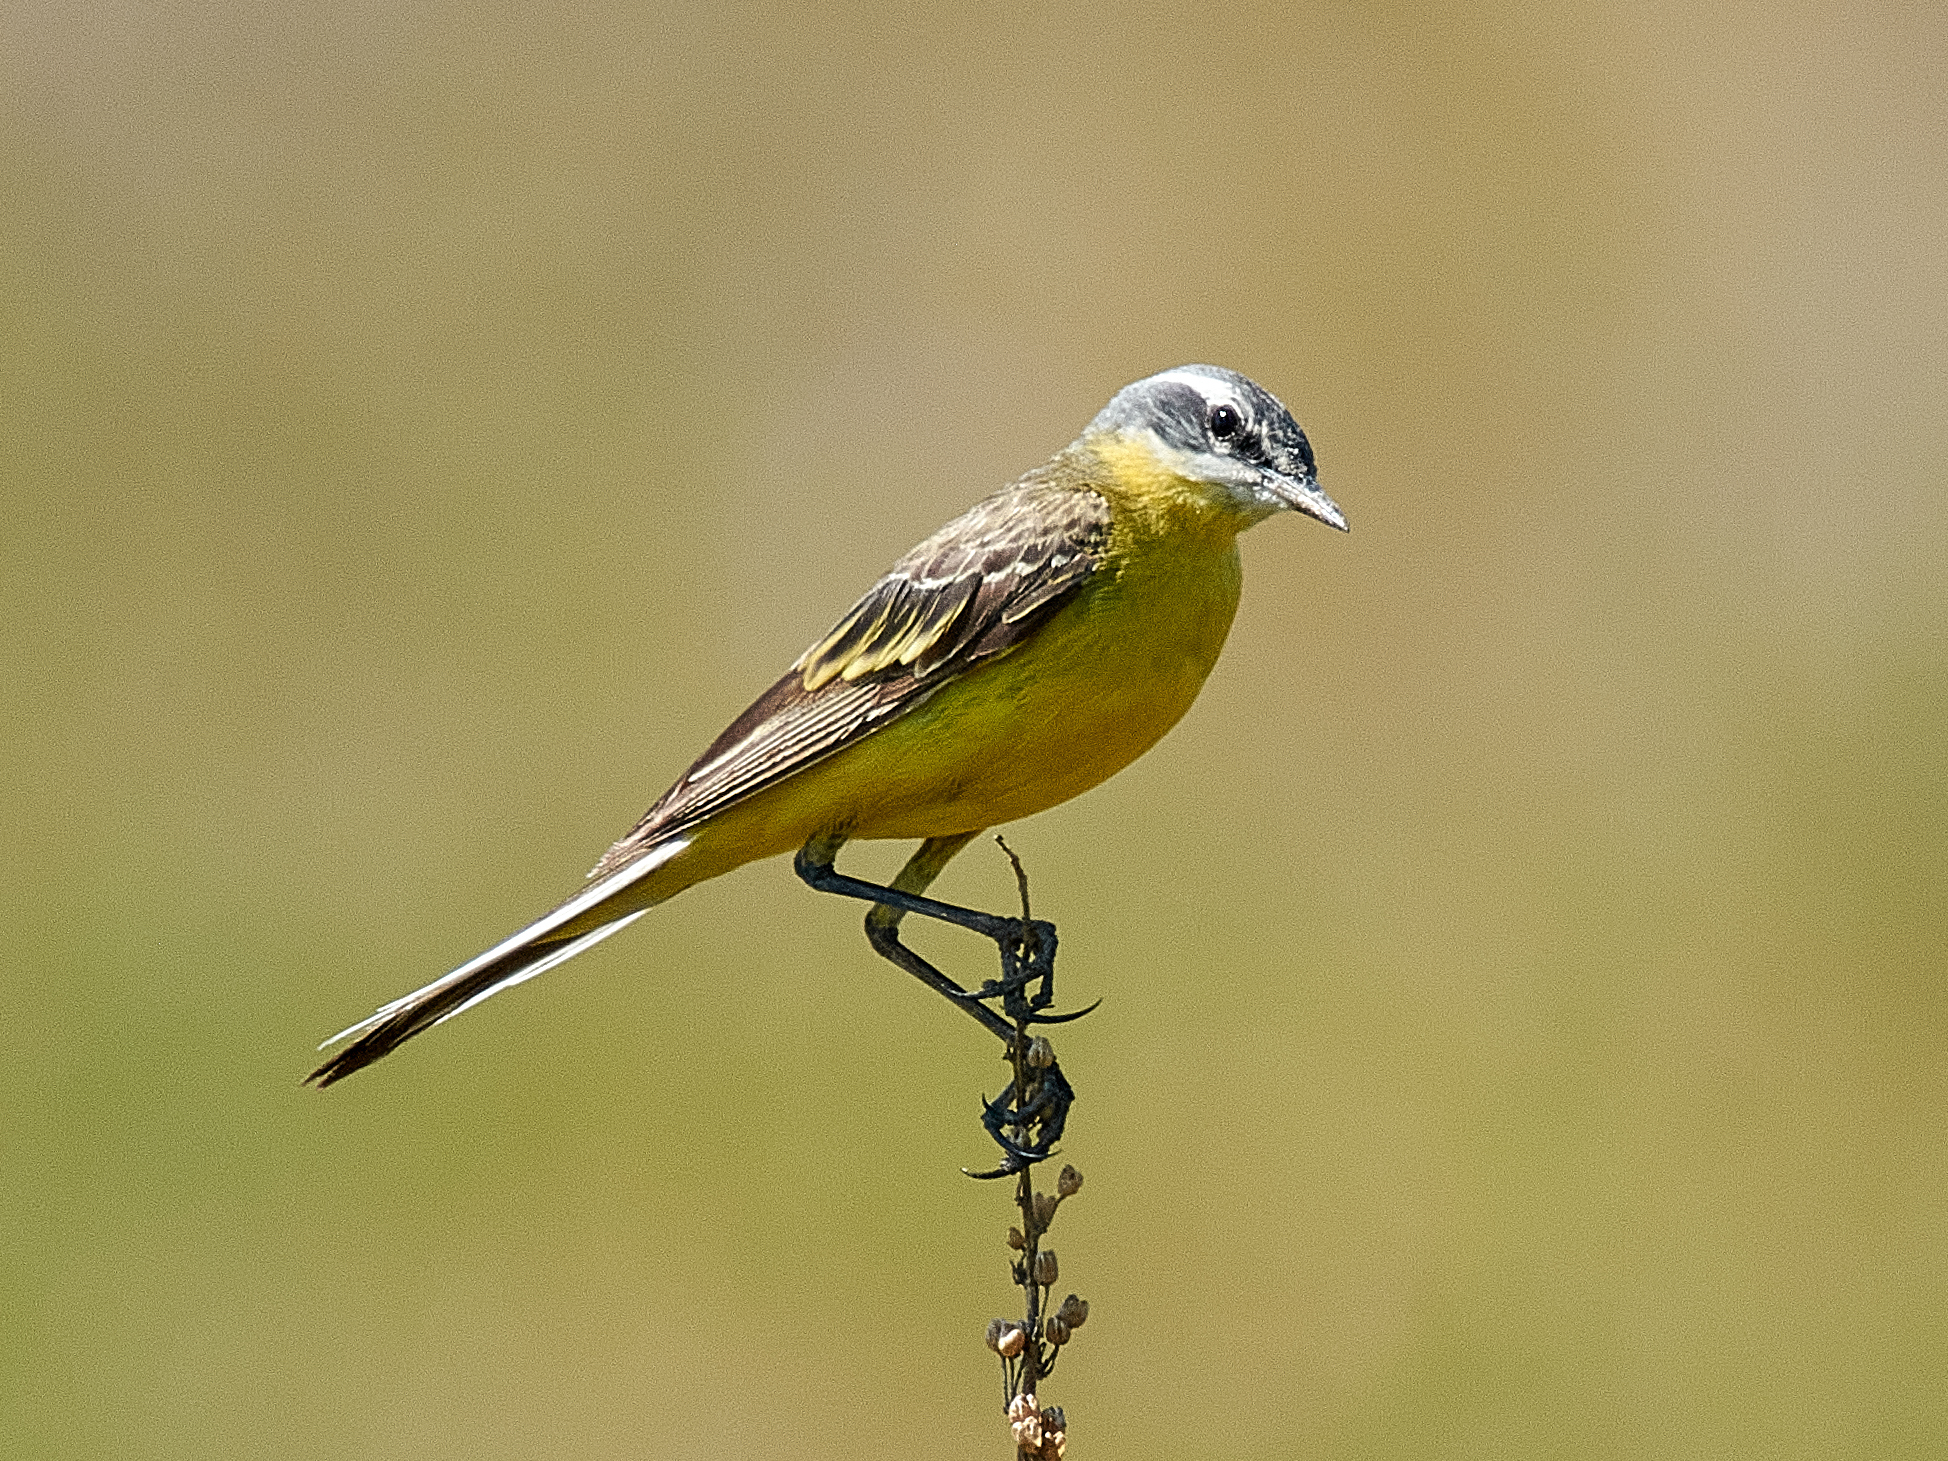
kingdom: Animalia
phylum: Chordata
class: Aves
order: Passeriformes
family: Motacillidae
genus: Motacilla
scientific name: Motacilla flava
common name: Western yellow wagtail
